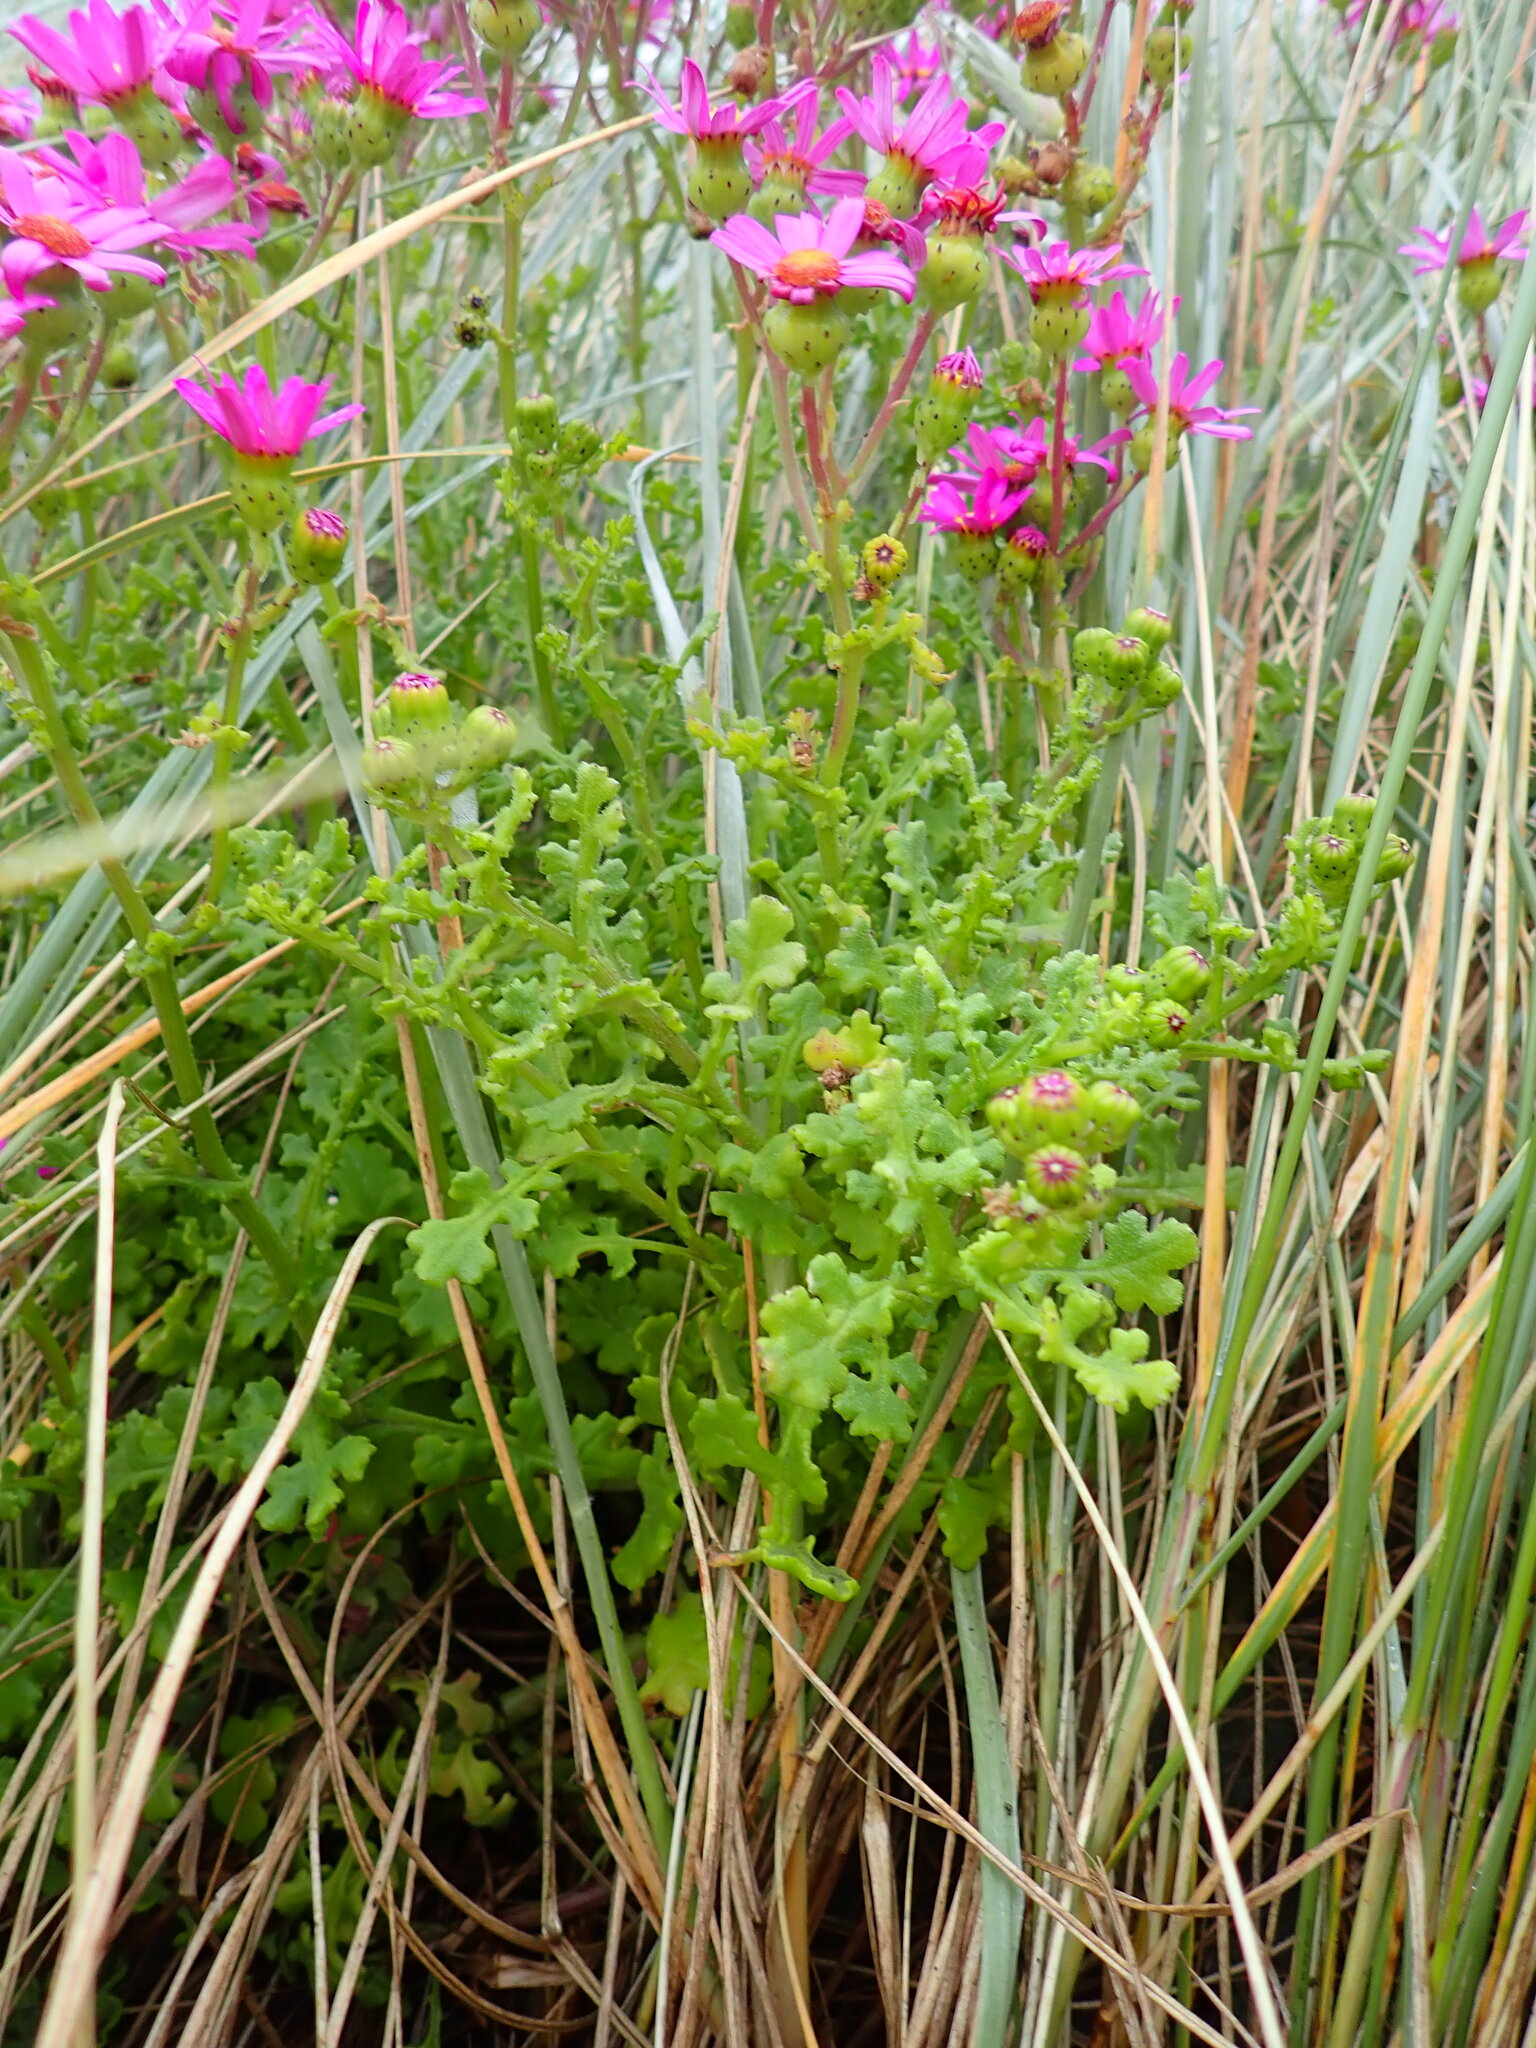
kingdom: Plantae
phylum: Tracheophyta
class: Magnoliopsida
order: Asterales
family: Asteraceae
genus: Senecio
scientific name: Senecio elegans
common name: Purple groundsel
